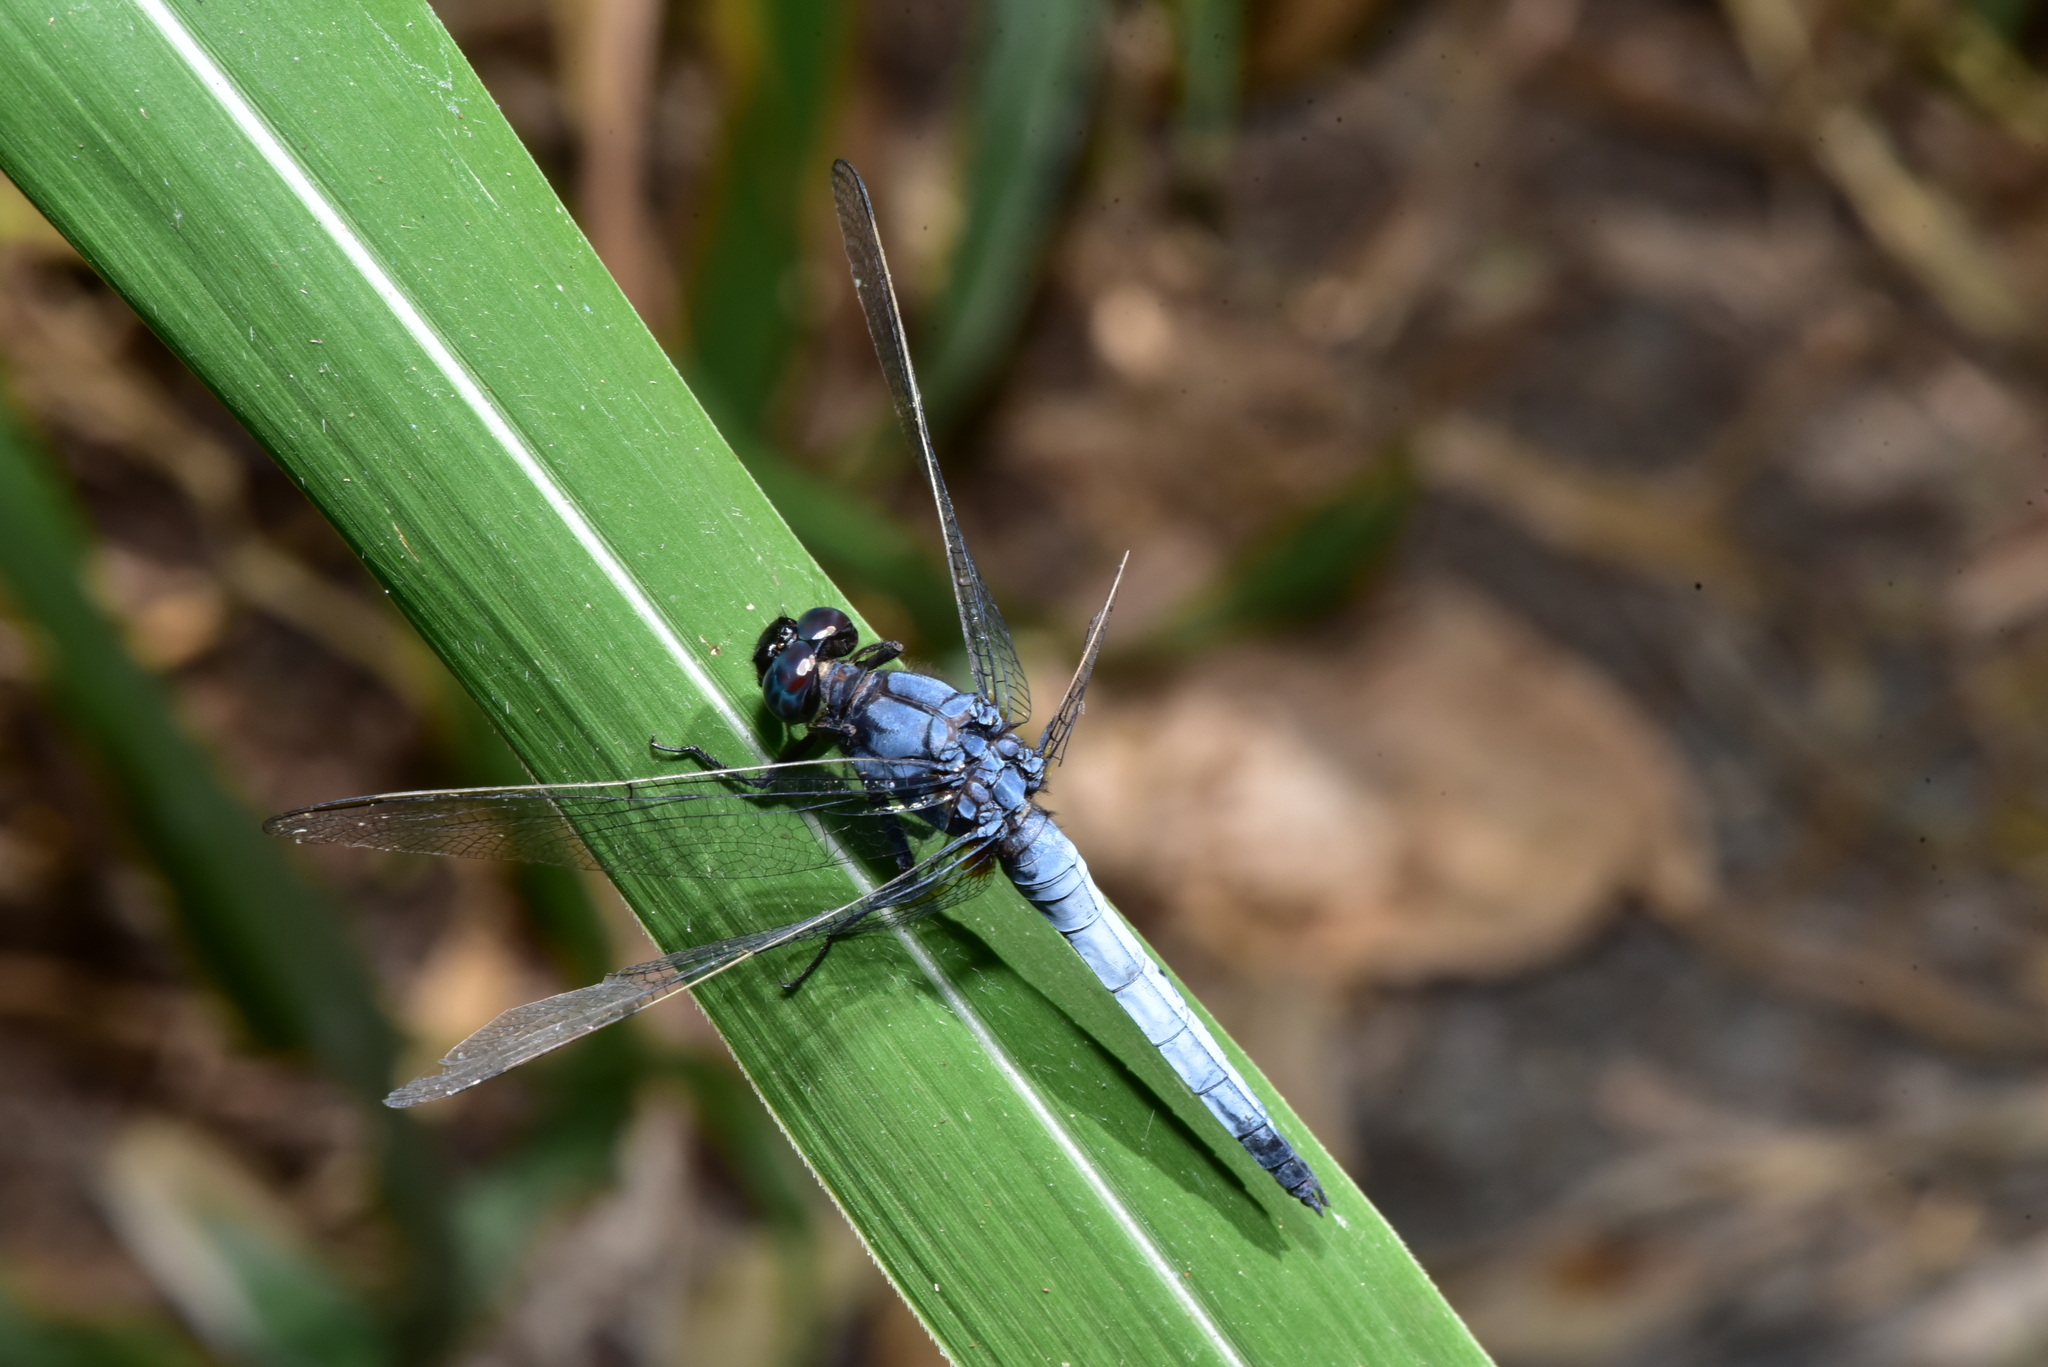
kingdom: Animalia
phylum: Arthropoda
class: Insecta
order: Odonata
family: Libellulidae
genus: Orthetrum
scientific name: Orthetrum glaucum
